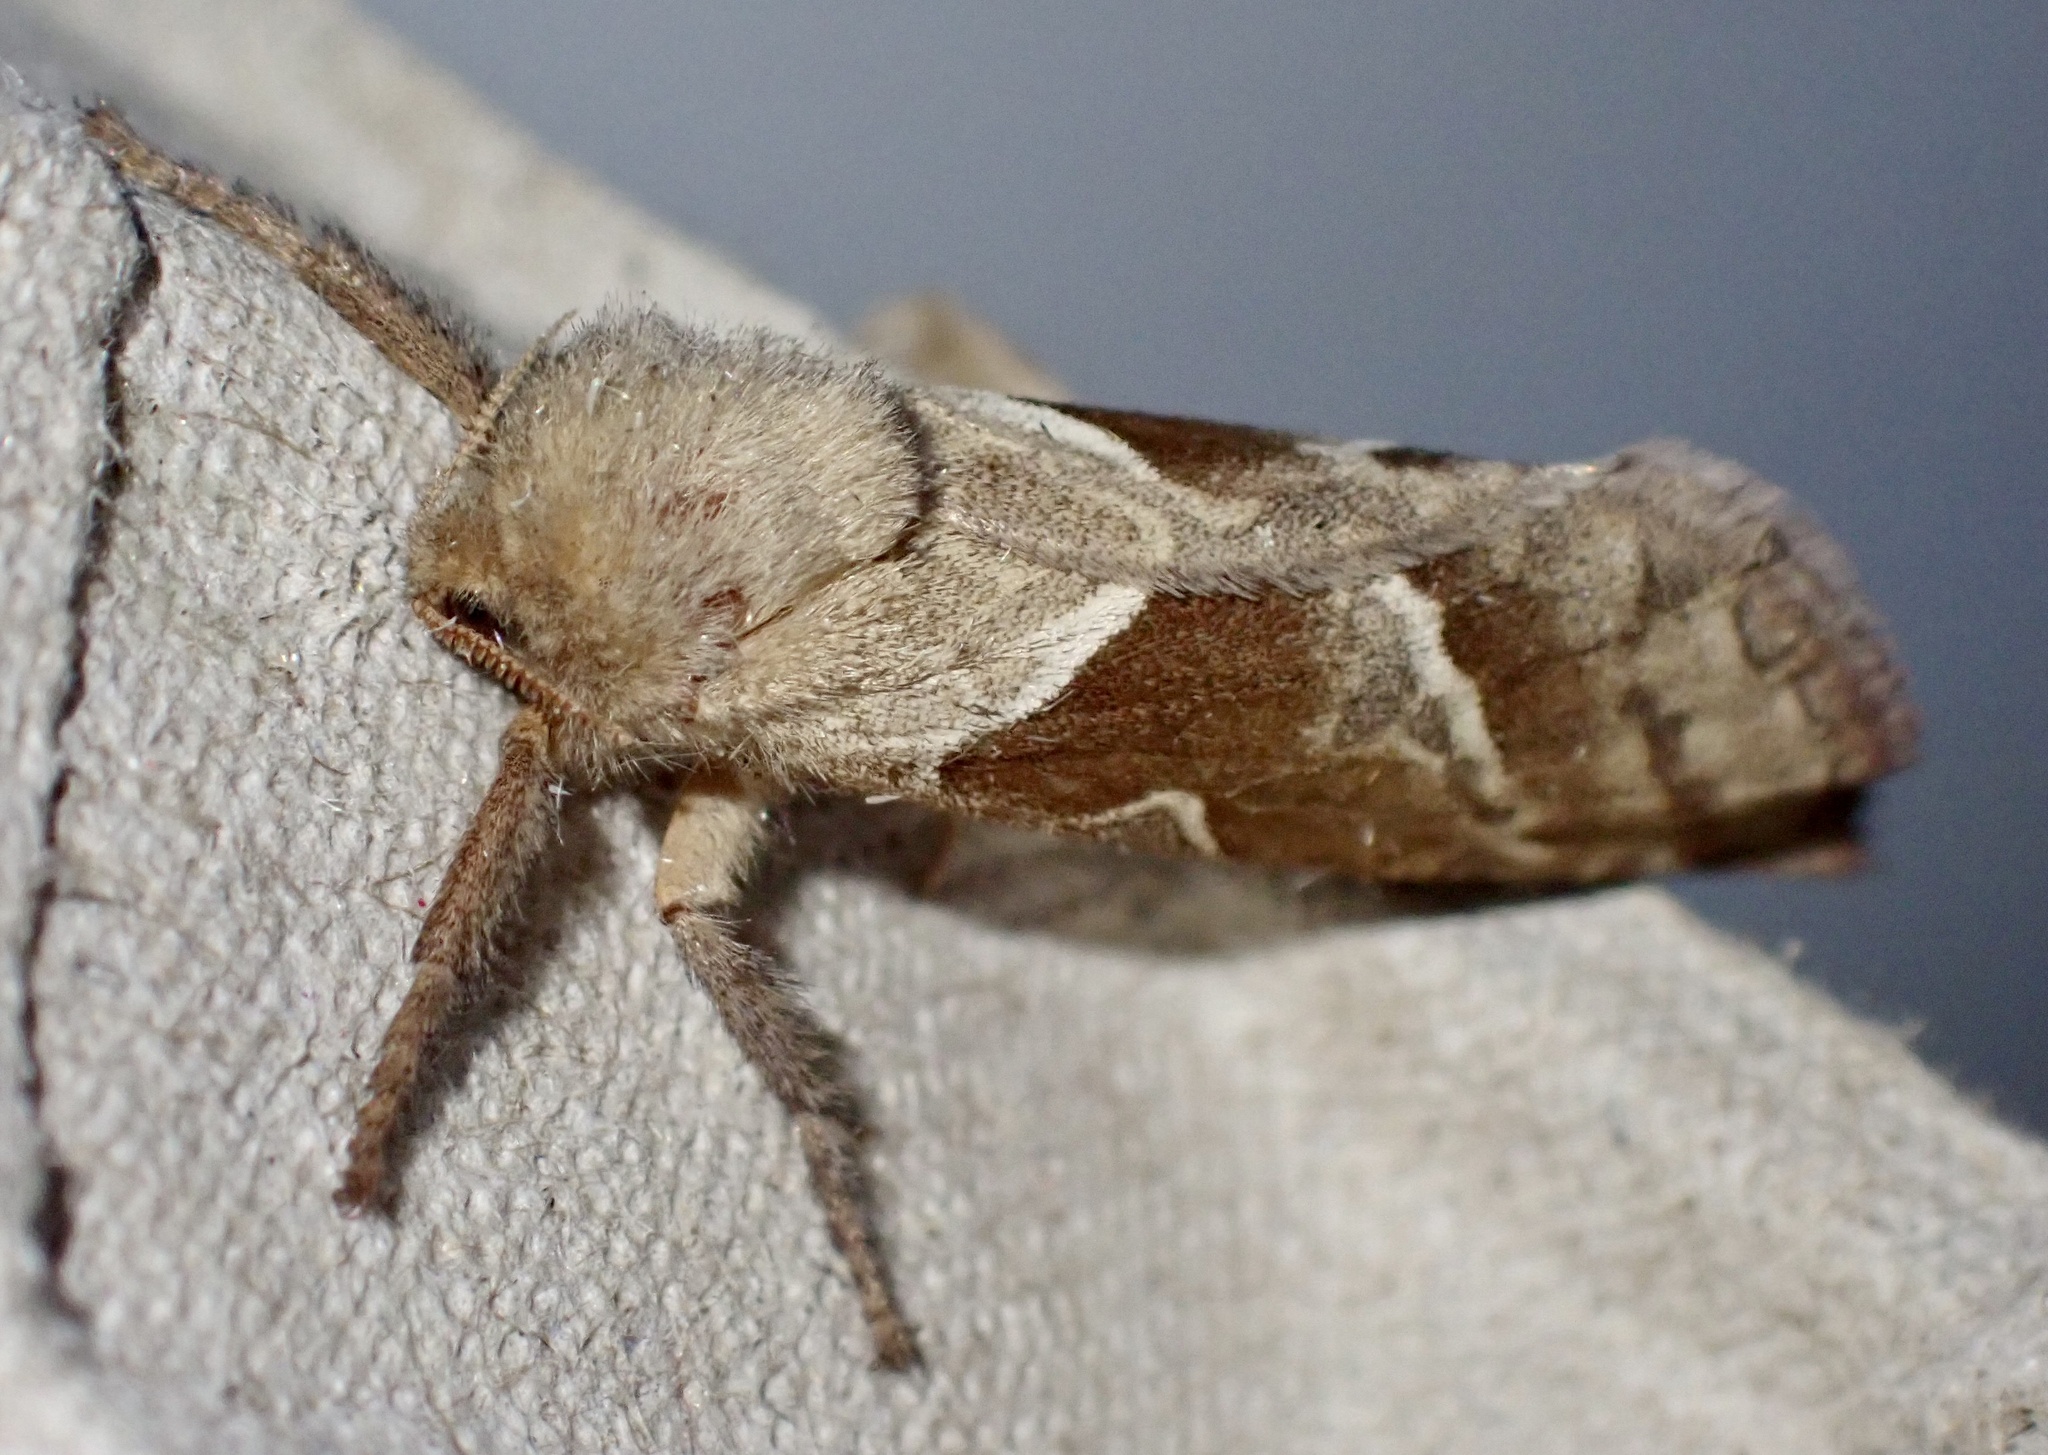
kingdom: Animalia
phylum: Arthropoda
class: Insecta
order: Lepidoptera
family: Hepialidae
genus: Triodia
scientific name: Triodia sylvina
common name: Orange swift
